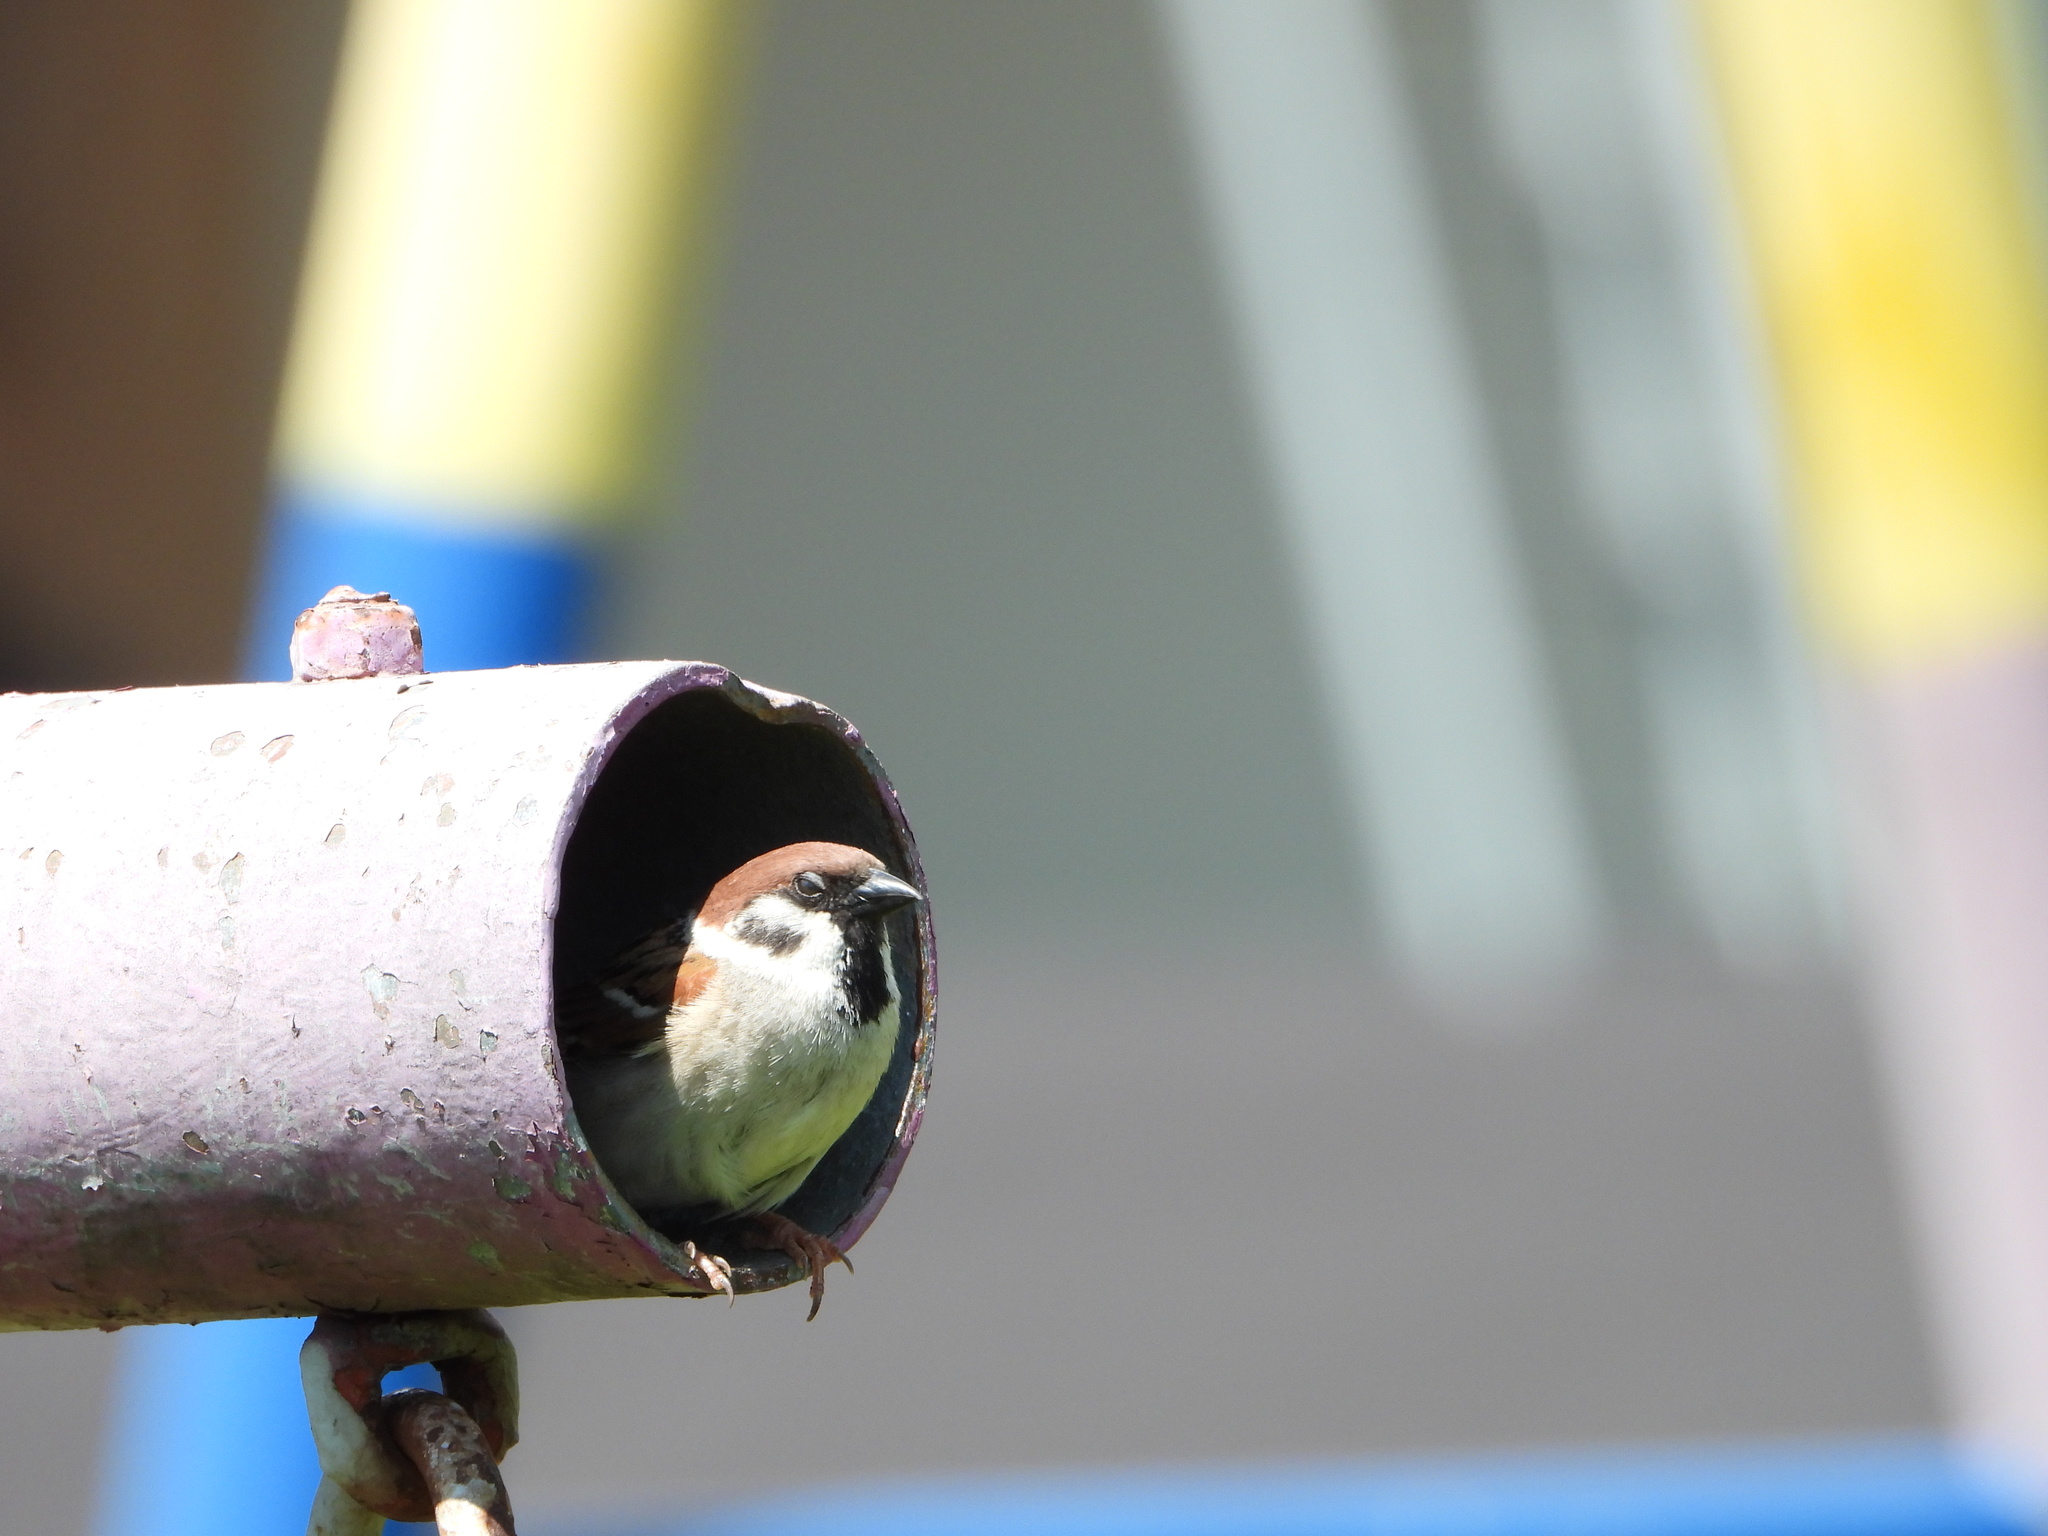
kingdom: Animalia
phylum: Chordata
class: Aves
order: Passeriformes
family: Passeridae
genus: Passer
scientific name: Passer montanus
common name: Eurasian tree sparrow
